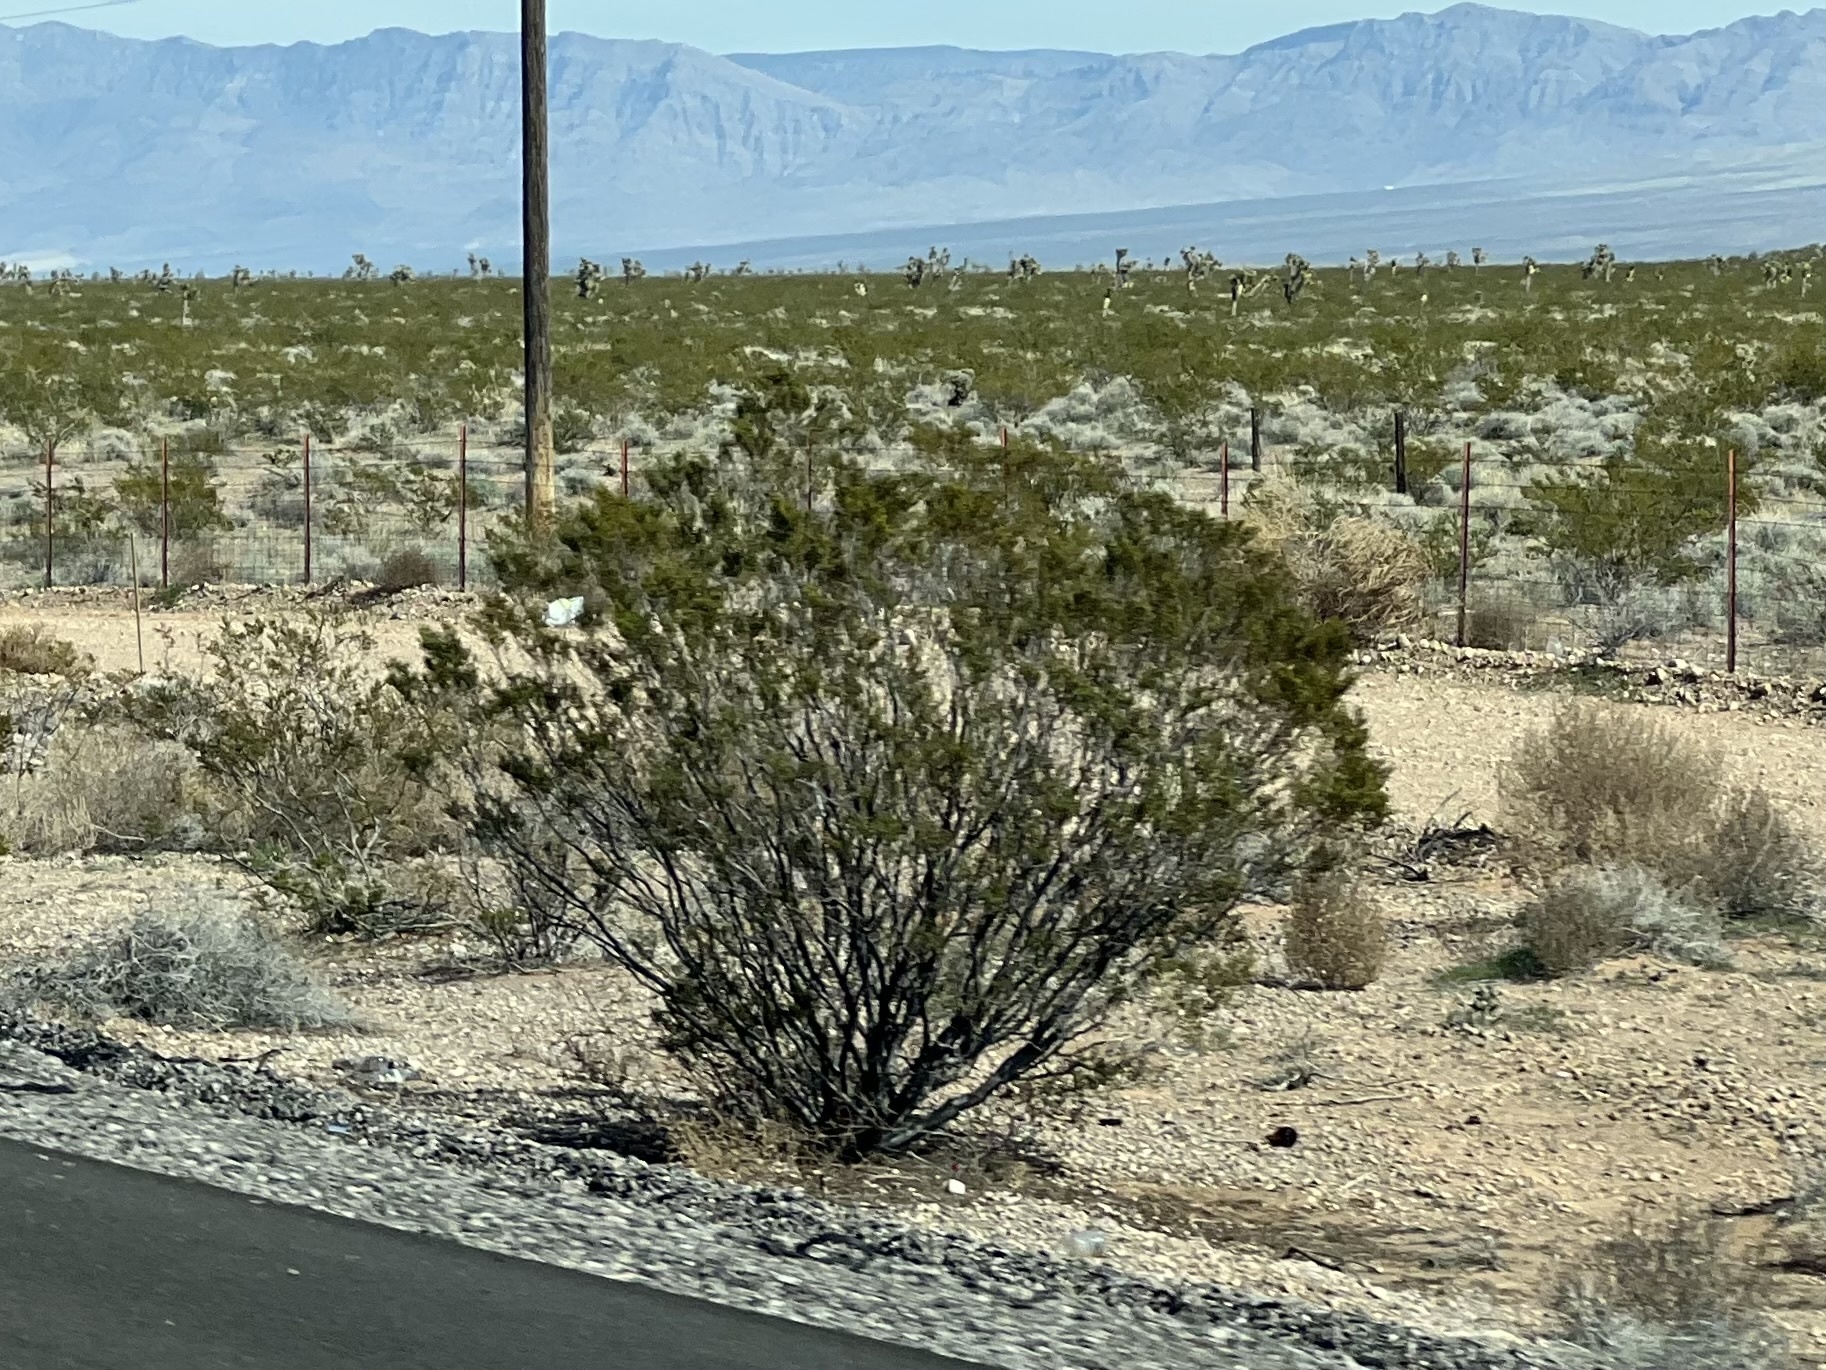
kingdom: Plantae
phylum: Tracheophyta
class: Magnoliopsida
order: Zygophyllales
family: Zygophyllaceae
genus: Larrea
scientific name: Larrea tridentata
